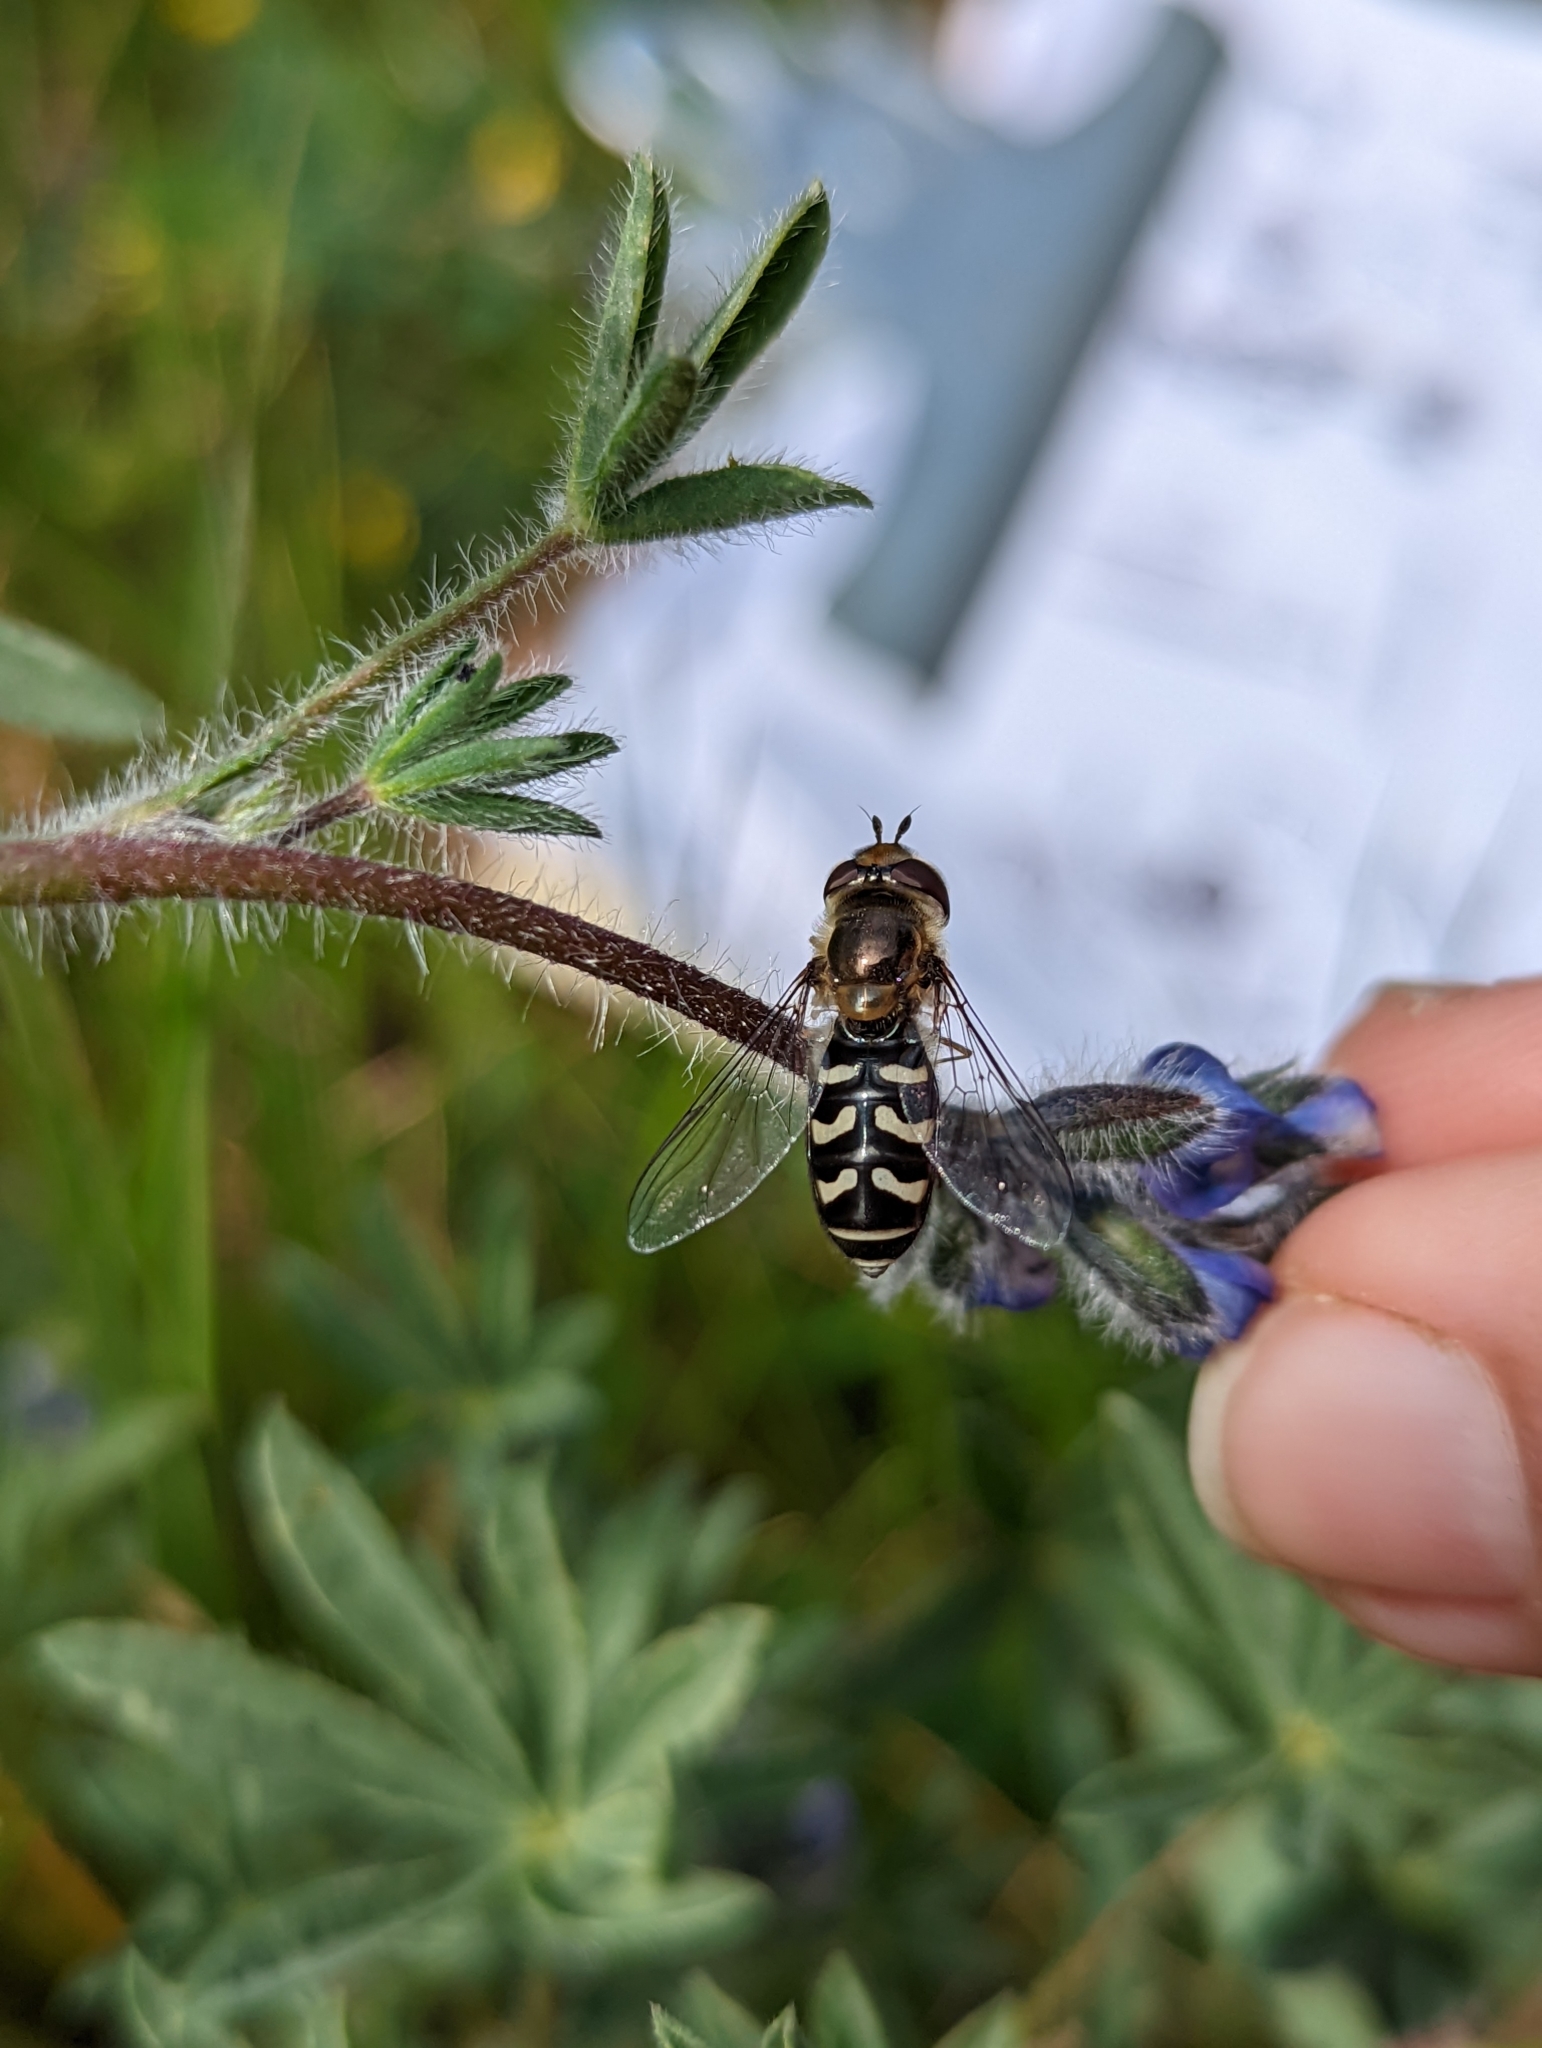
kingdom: Animalia
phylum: Arthropoda
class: Insecta
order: Diptera
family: Syrphidae
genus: Scaeva
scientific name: Scaeva affinis
